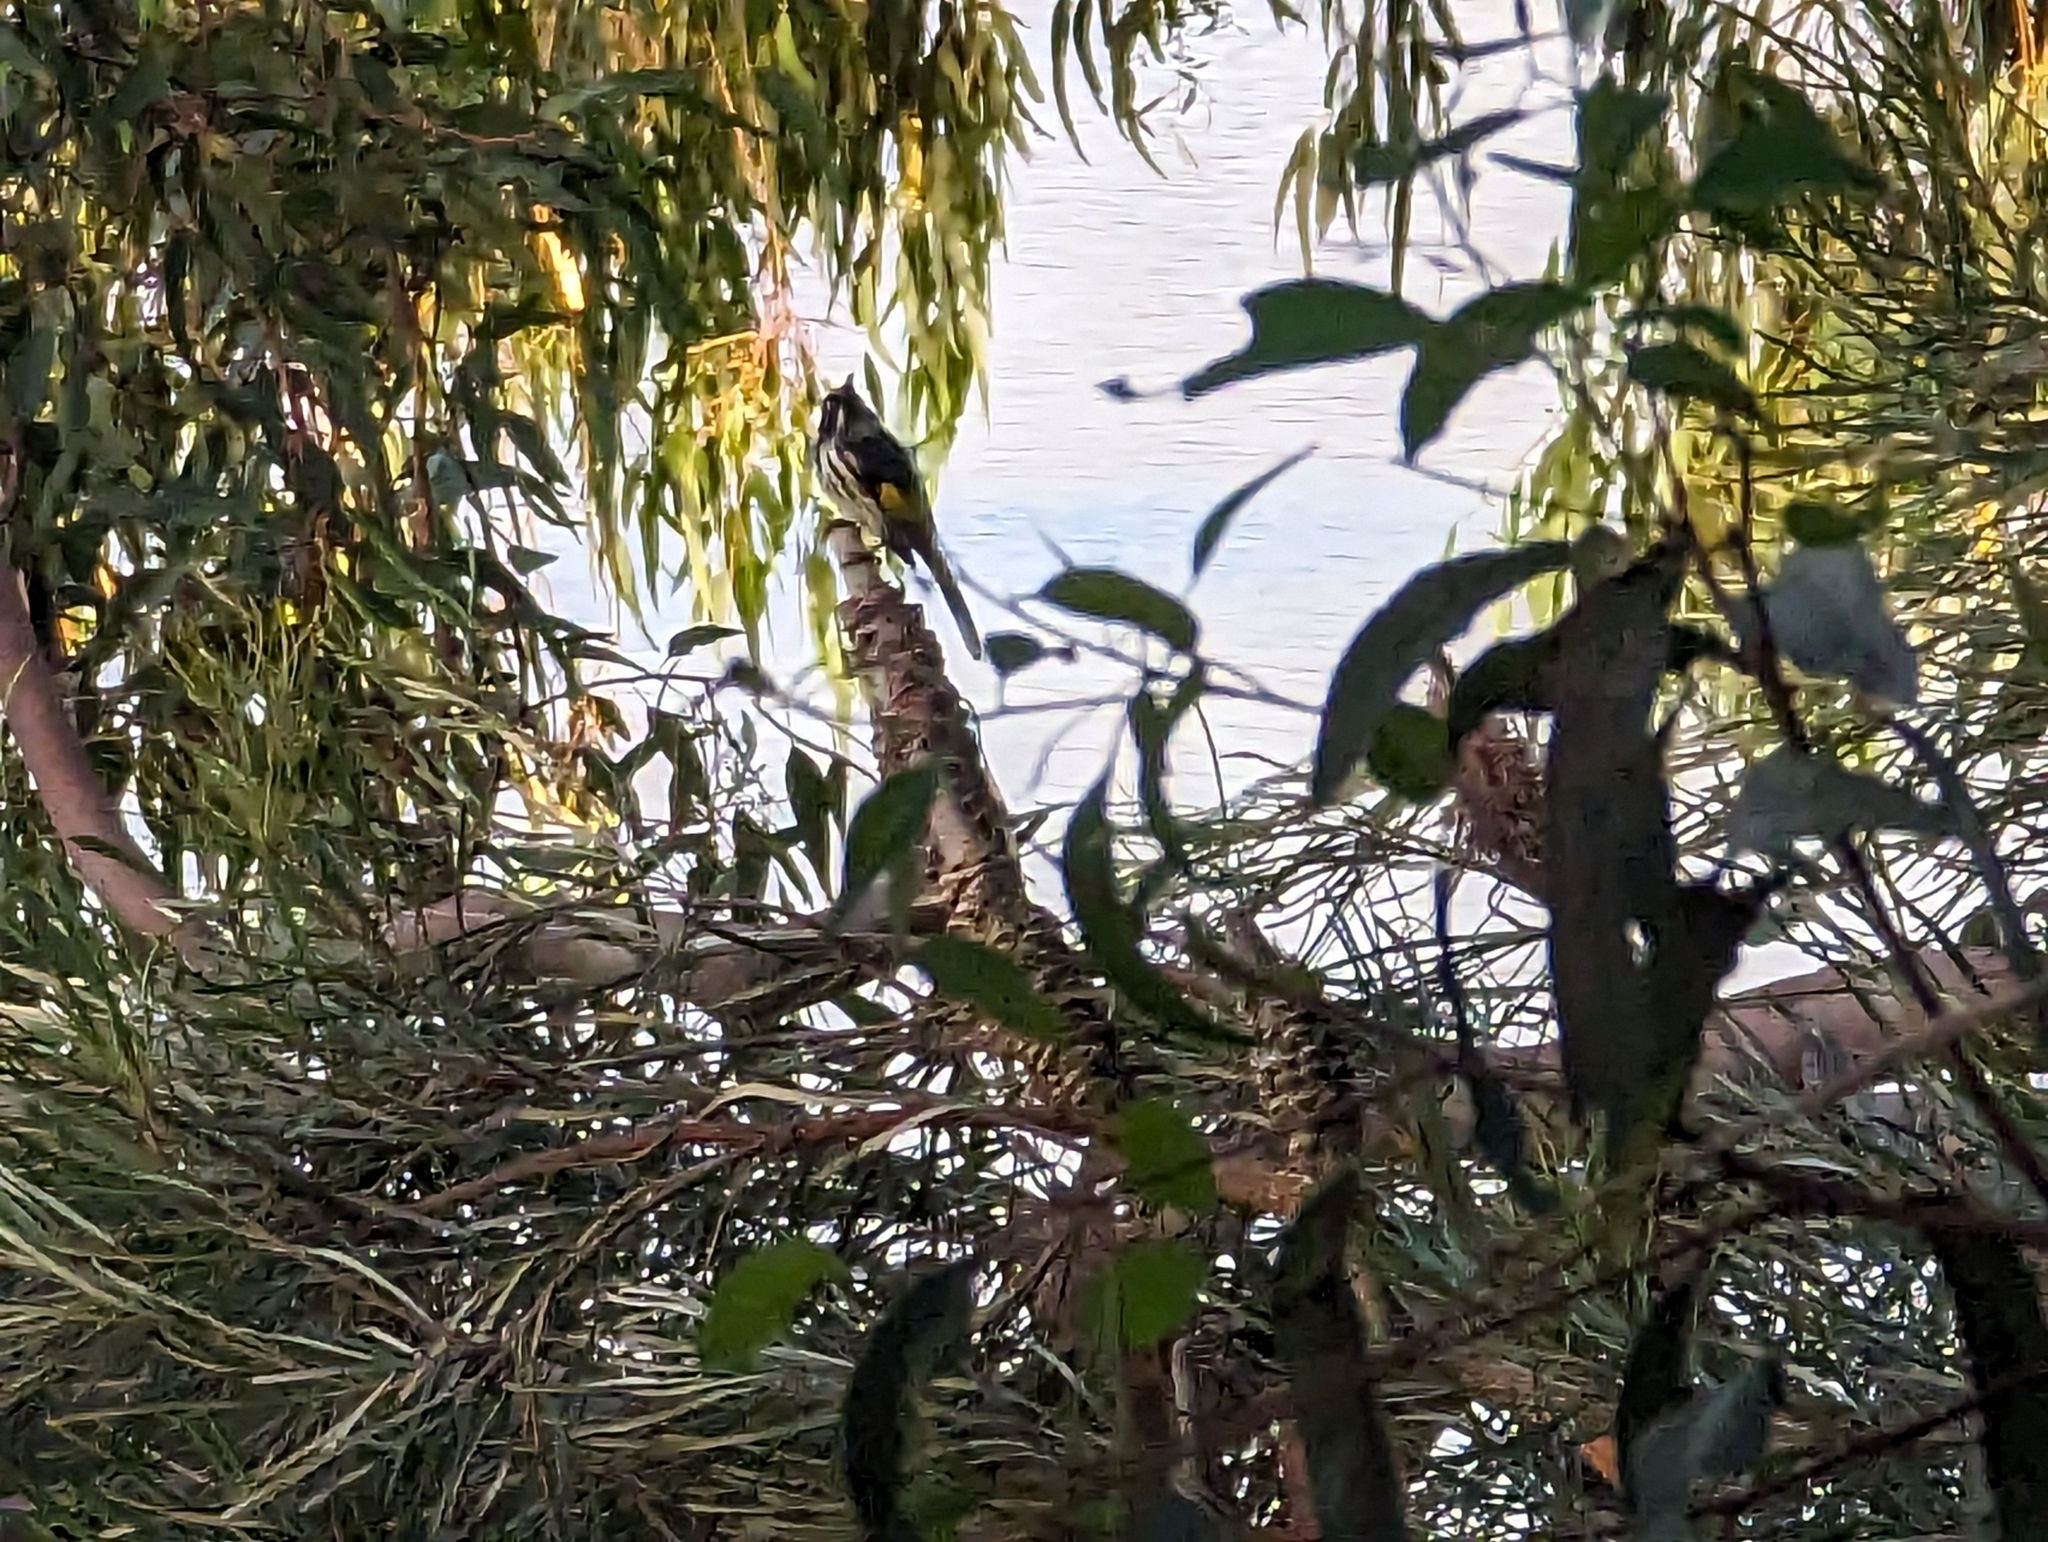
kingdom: Animalia
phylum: Chordata
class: Aves
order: Passeriformes
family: Meliphagidae
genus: Phylidonyris
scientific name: Phylidonyris novaehollandiae
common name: New holland honeyeater
